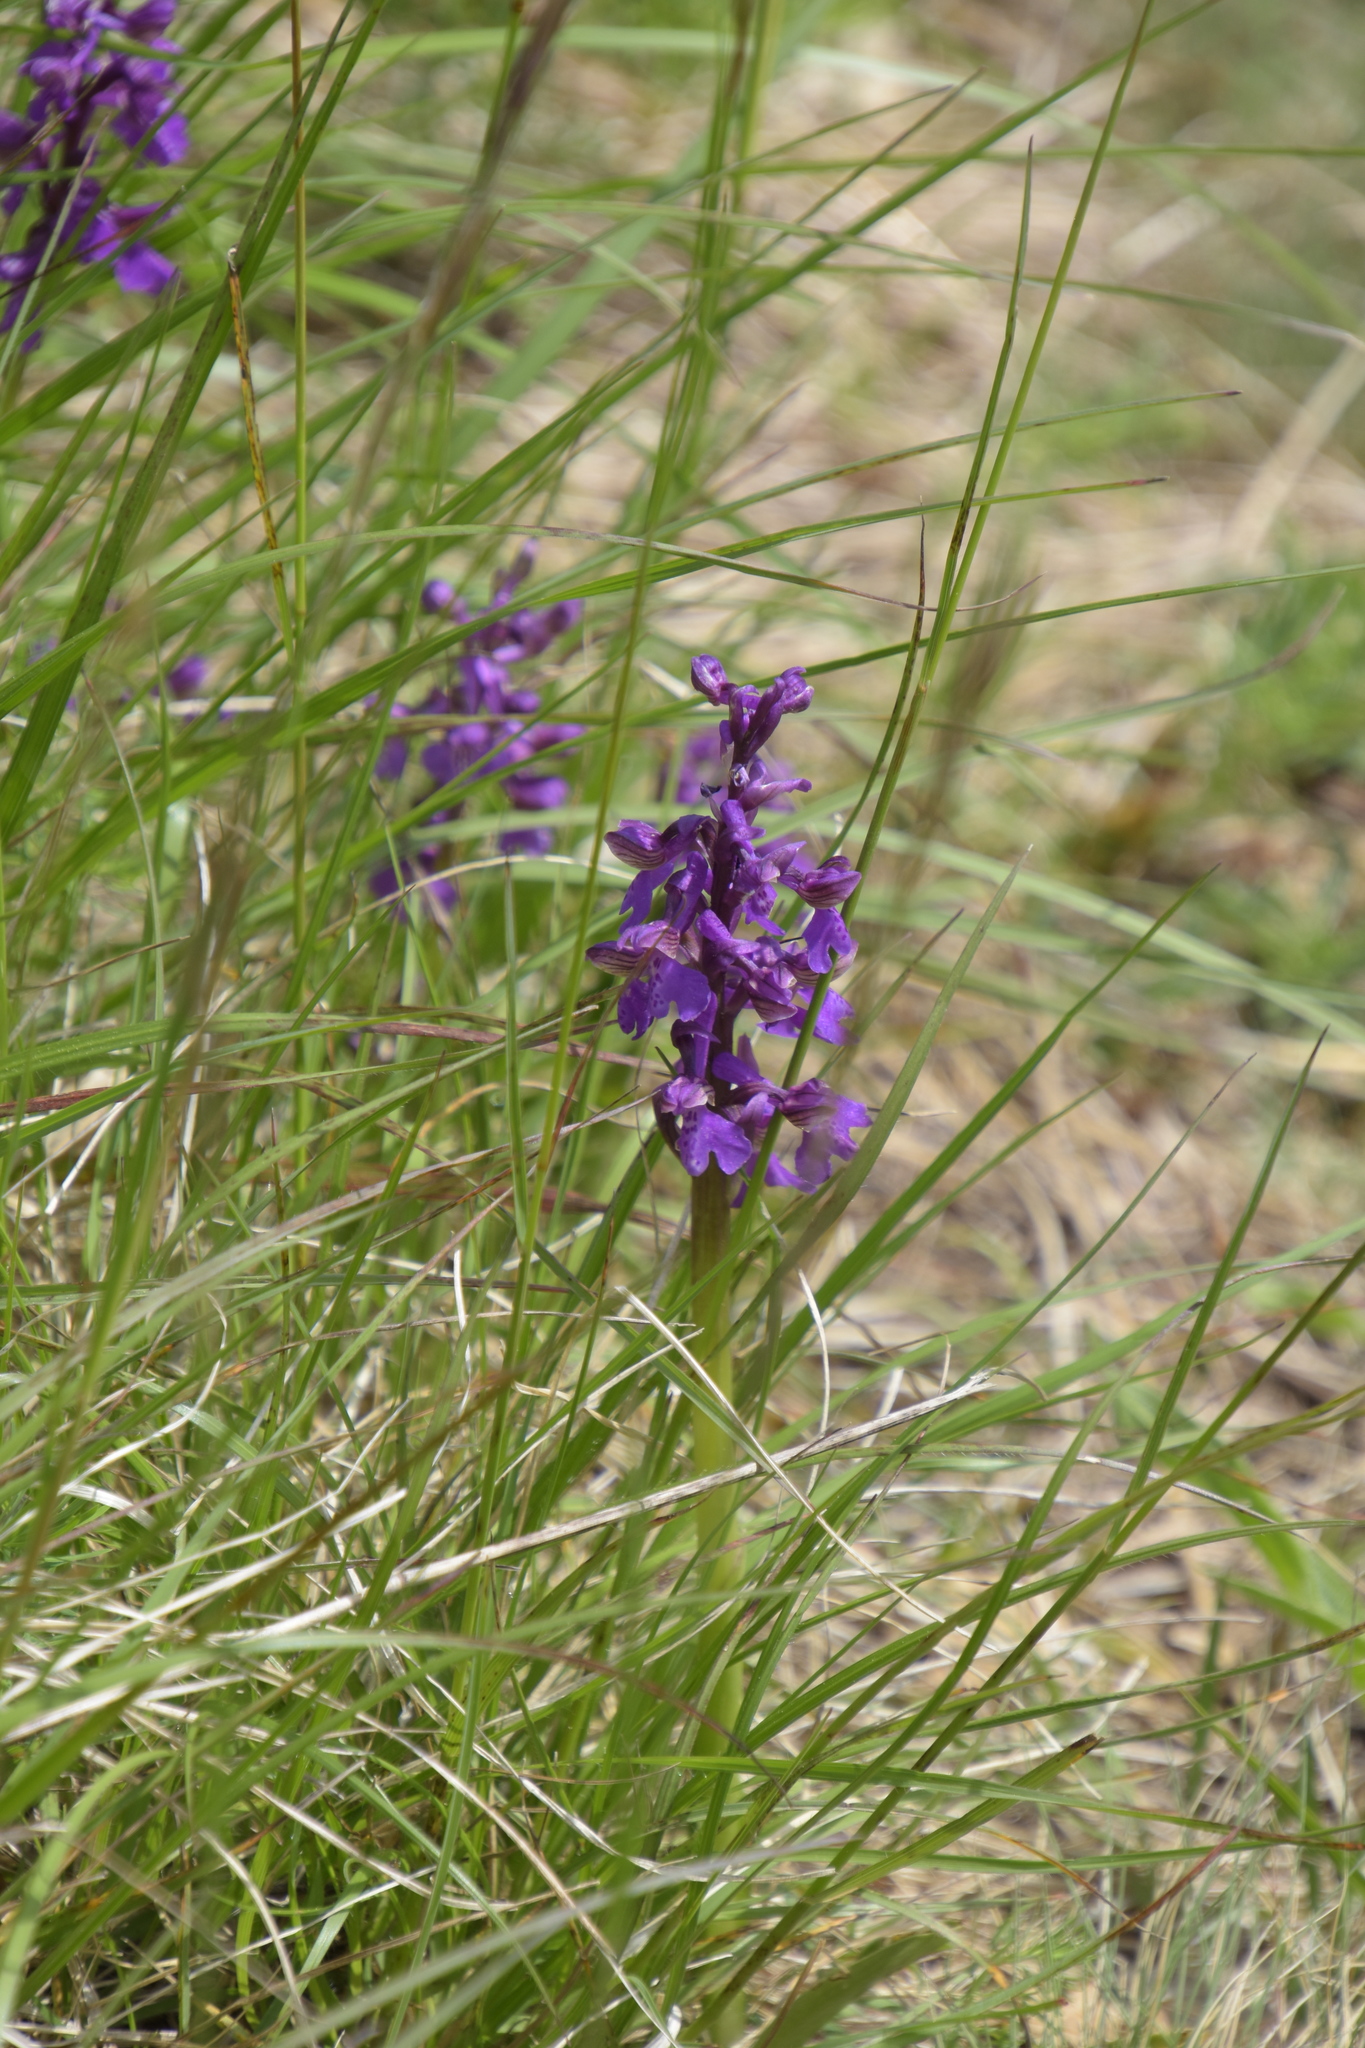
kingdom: Plantae
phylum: Tracheophyta
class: Liliopsida
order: Asparagales
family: Orchidaceae
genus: Anacamptis
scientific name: Anacamptis morio
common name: Green-winged orchid
